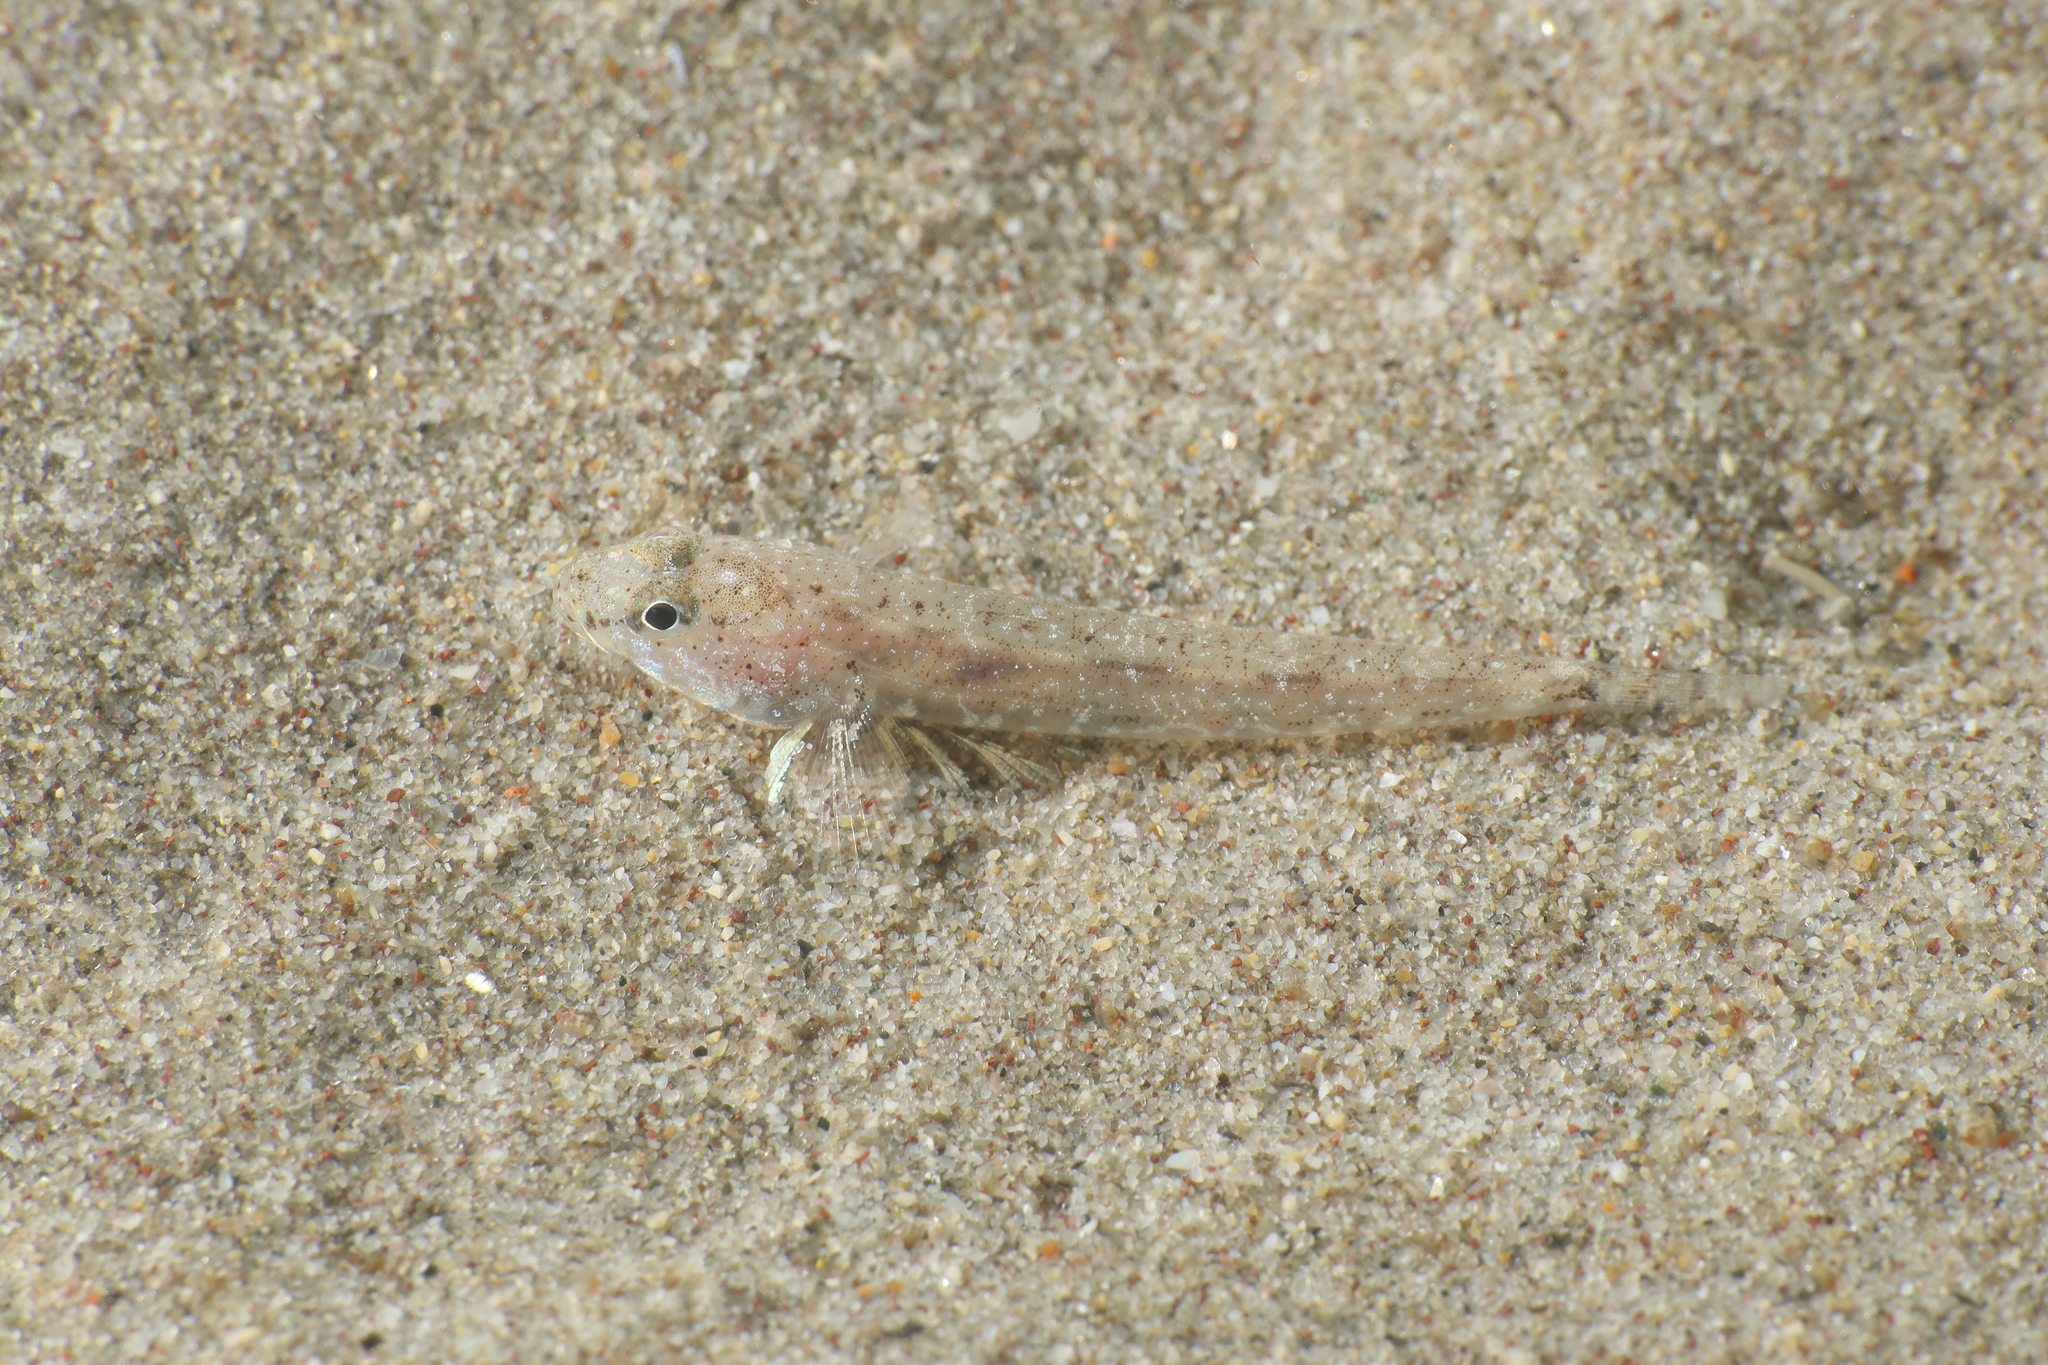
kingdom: Animalia
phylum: Chordata
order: Perciformes
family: Gobiidae
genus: Pomatoschistus
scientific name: Pomatoschistus marmoratus
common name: Marbled goby
